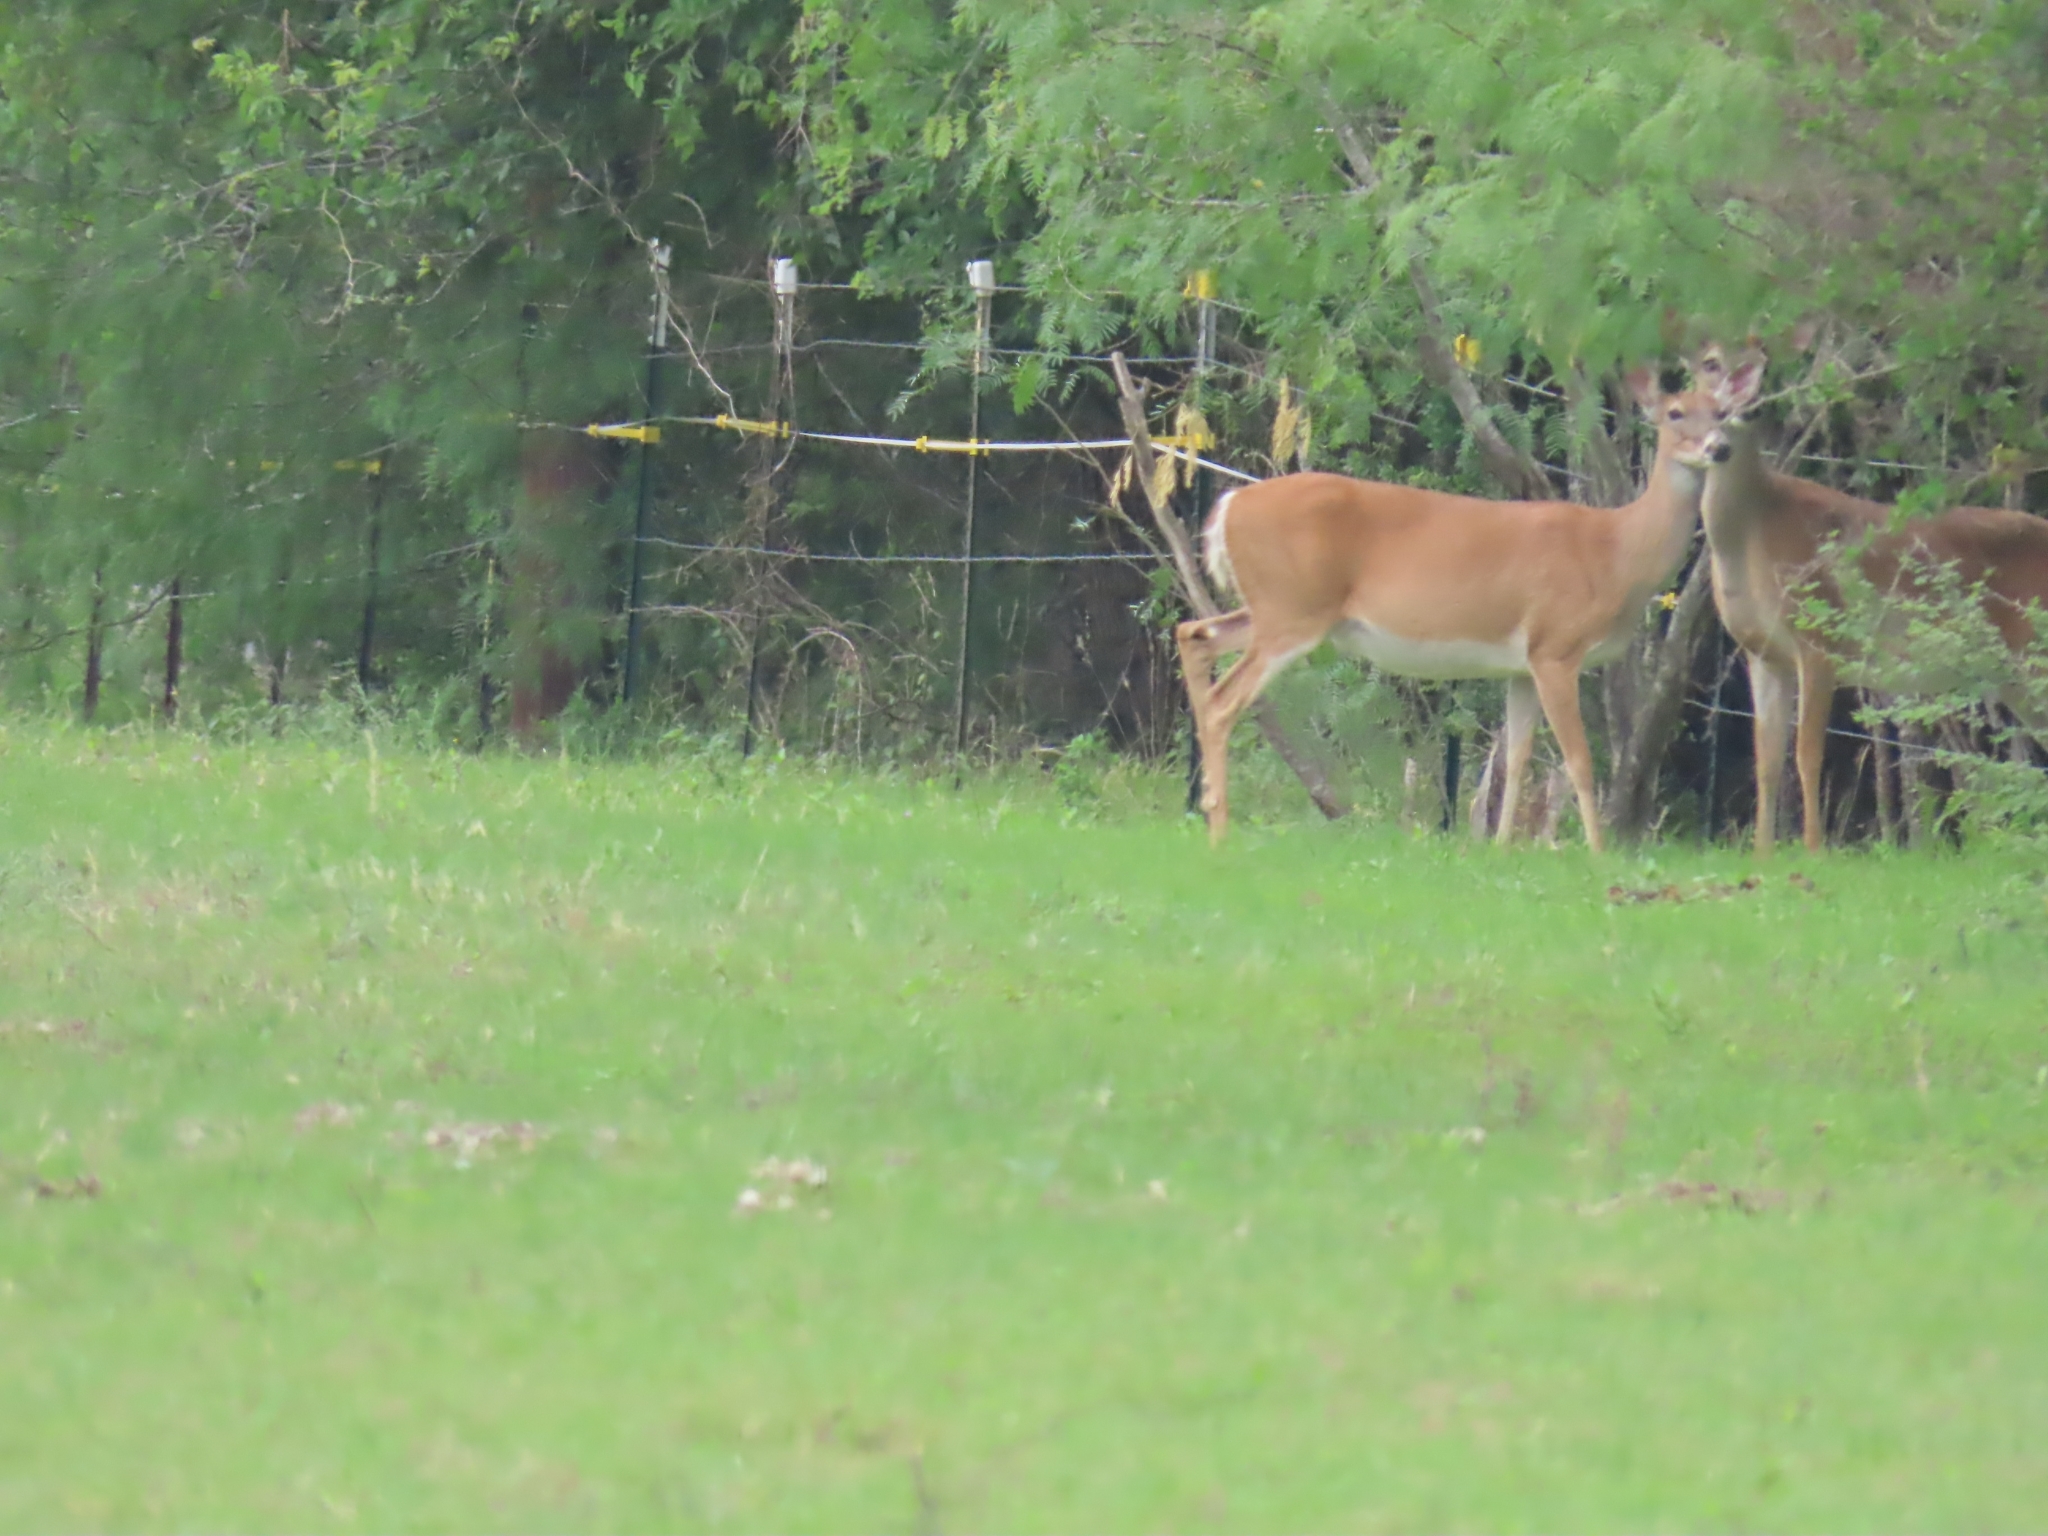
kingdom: Animalia
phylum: Chordata
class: Mammalia
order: Artiodactyla
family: Cervidae
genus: Odocoileus
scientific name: Odocoileus virginianus
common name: White-tailed deer
